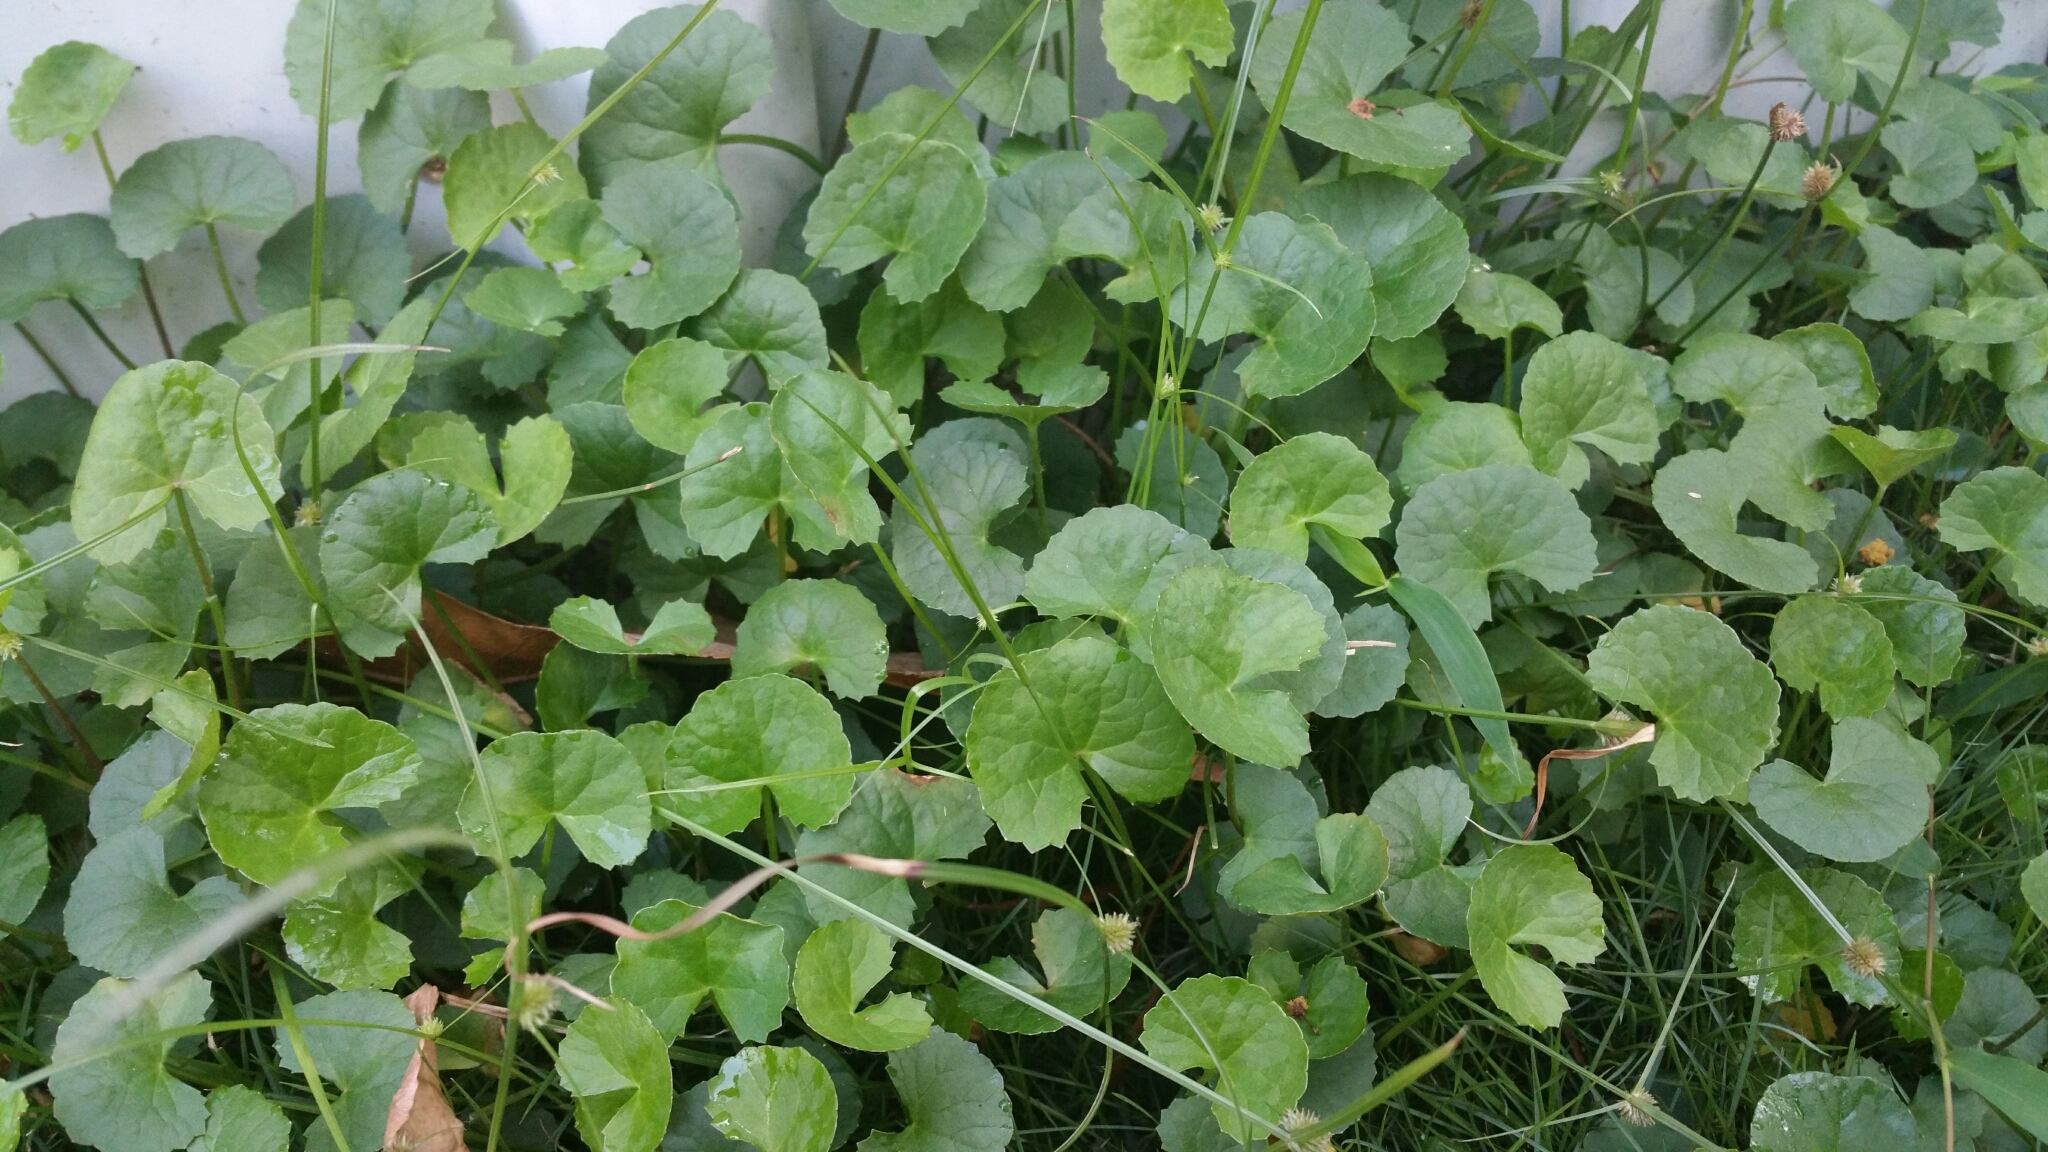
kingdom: Plantae
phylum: Tracheophyta
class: Magnoliopsida
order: Apiales
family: Apiaceae
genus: Centella
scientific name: Centella asiatica
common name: Spadeleaf
